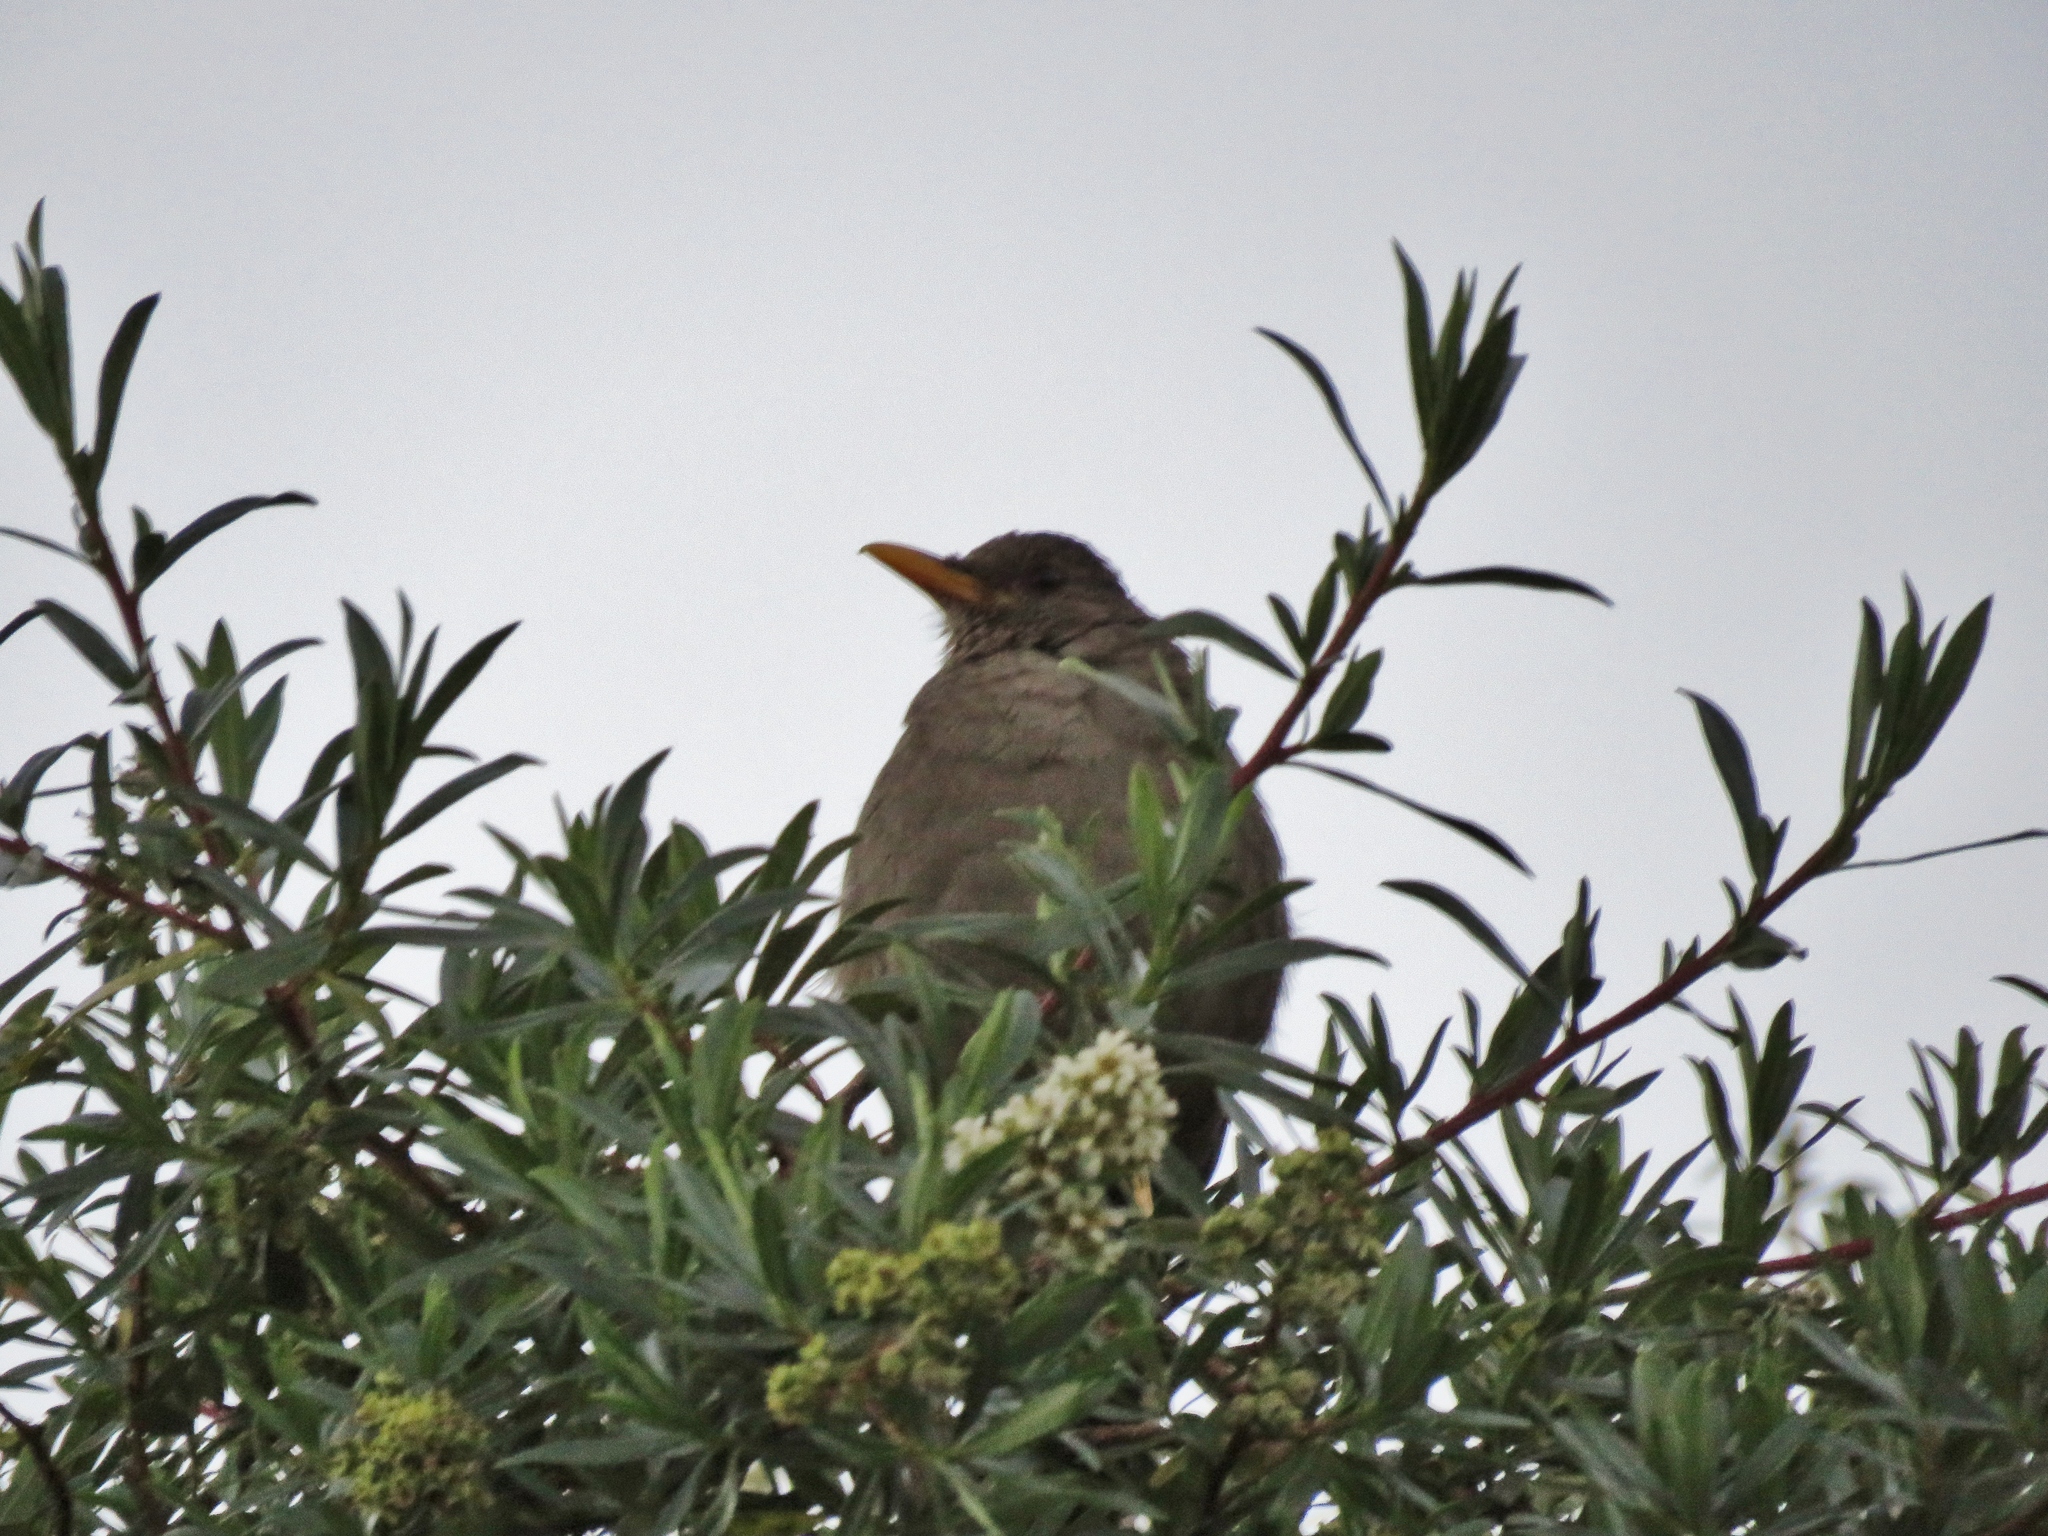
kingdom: Animalia
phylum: Chordata
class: Aves
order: Passeriformes
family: Turdidae
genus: Turdus
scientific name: Turdus chiguanco
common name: Chiguanco thrush
